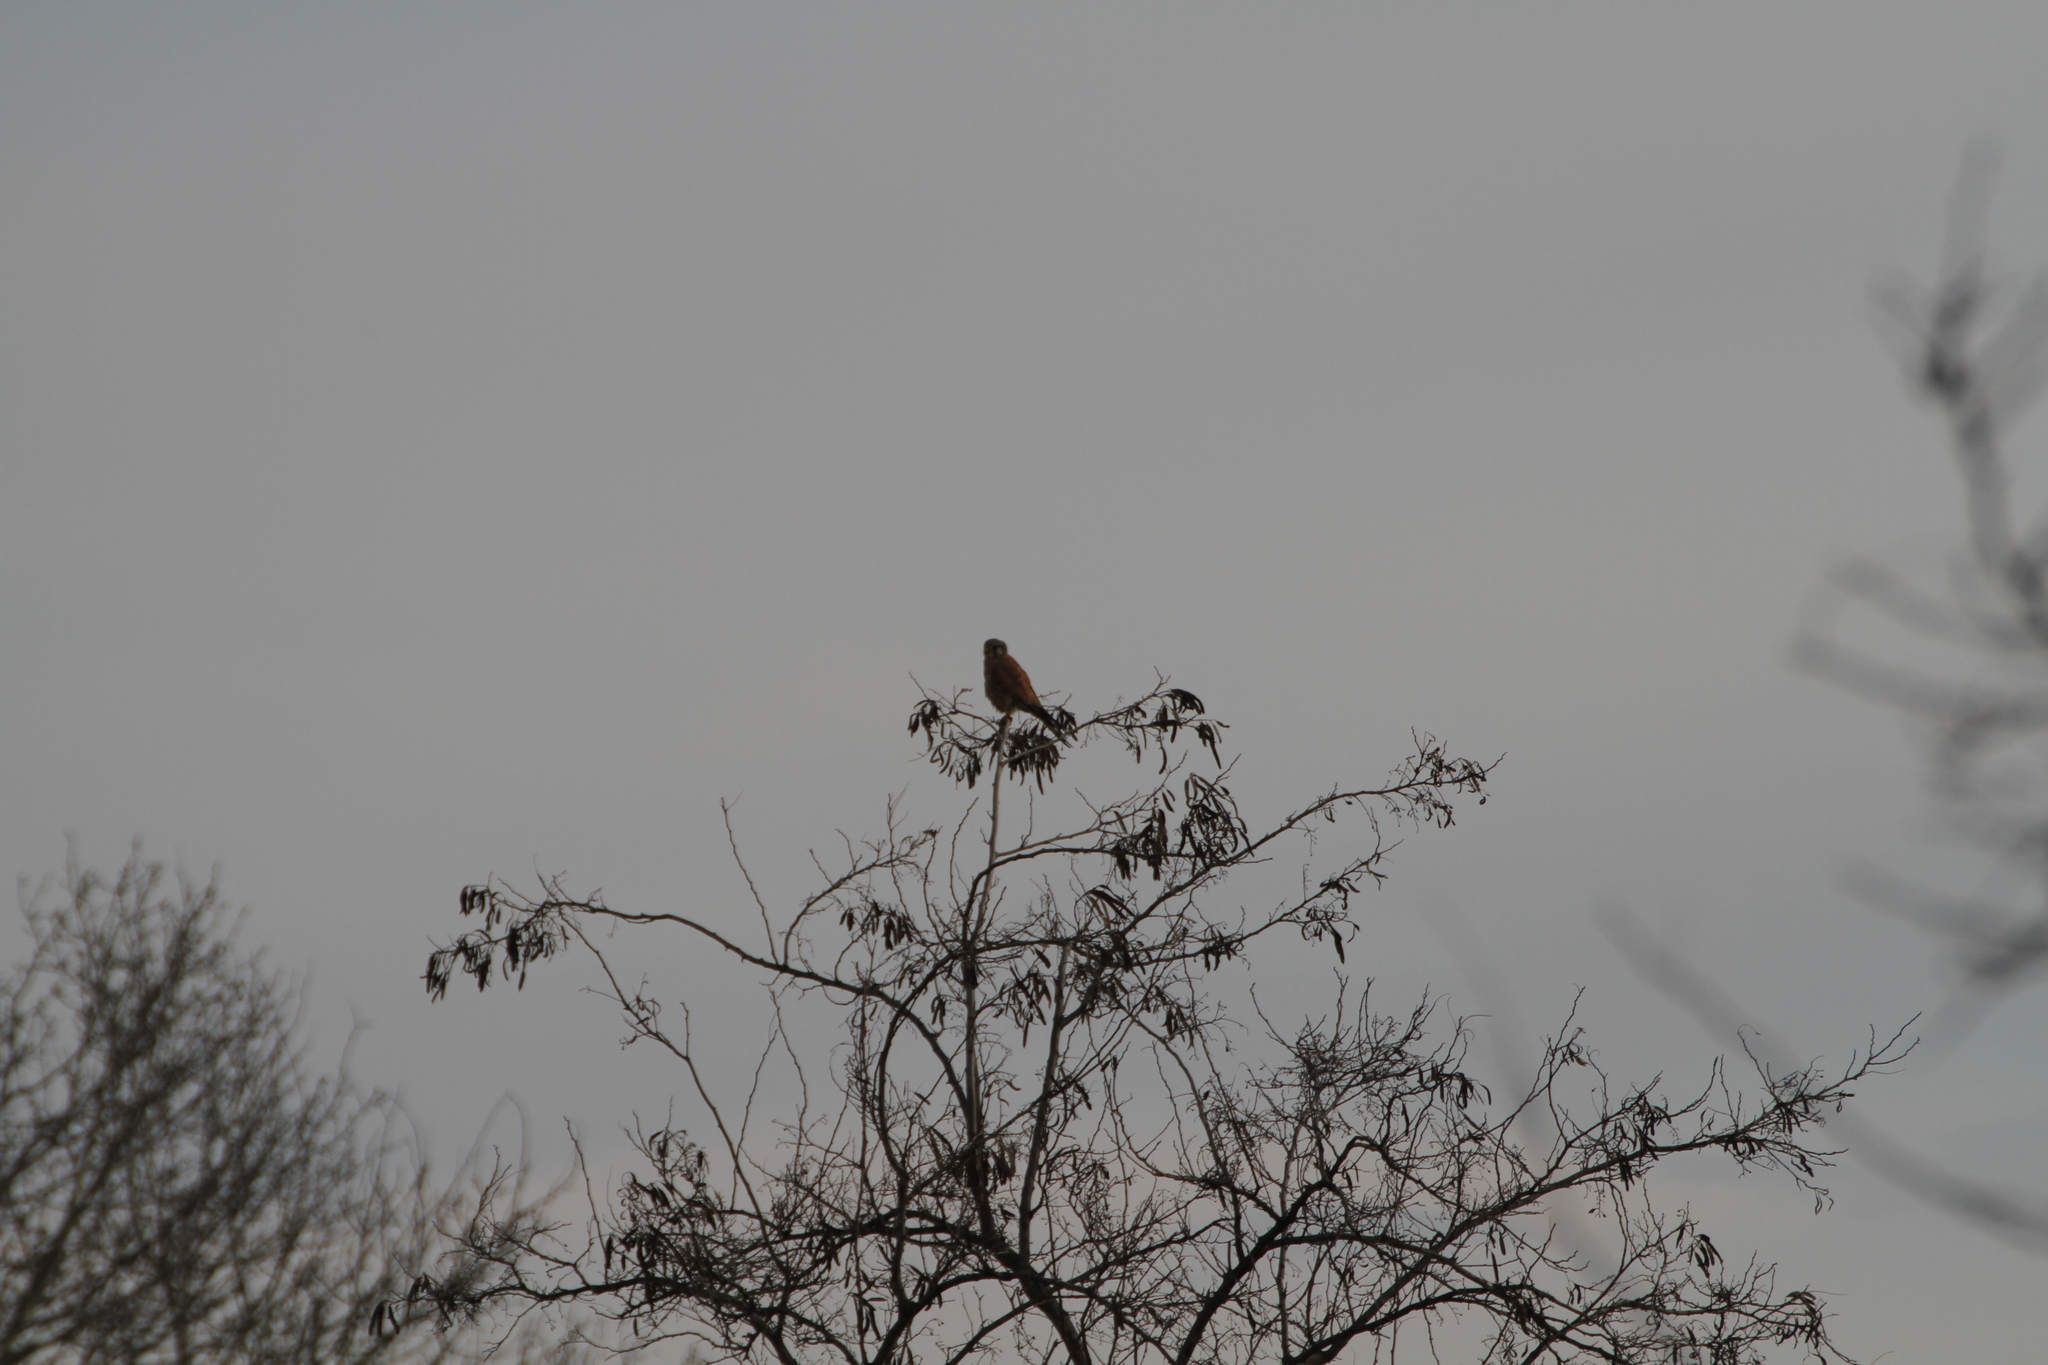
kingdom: Animalia
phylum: Chordata
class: Aves
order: Falconiformes
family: Falconidae
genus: Falco
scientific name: Falco tinnunculus
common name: Common kestrel
